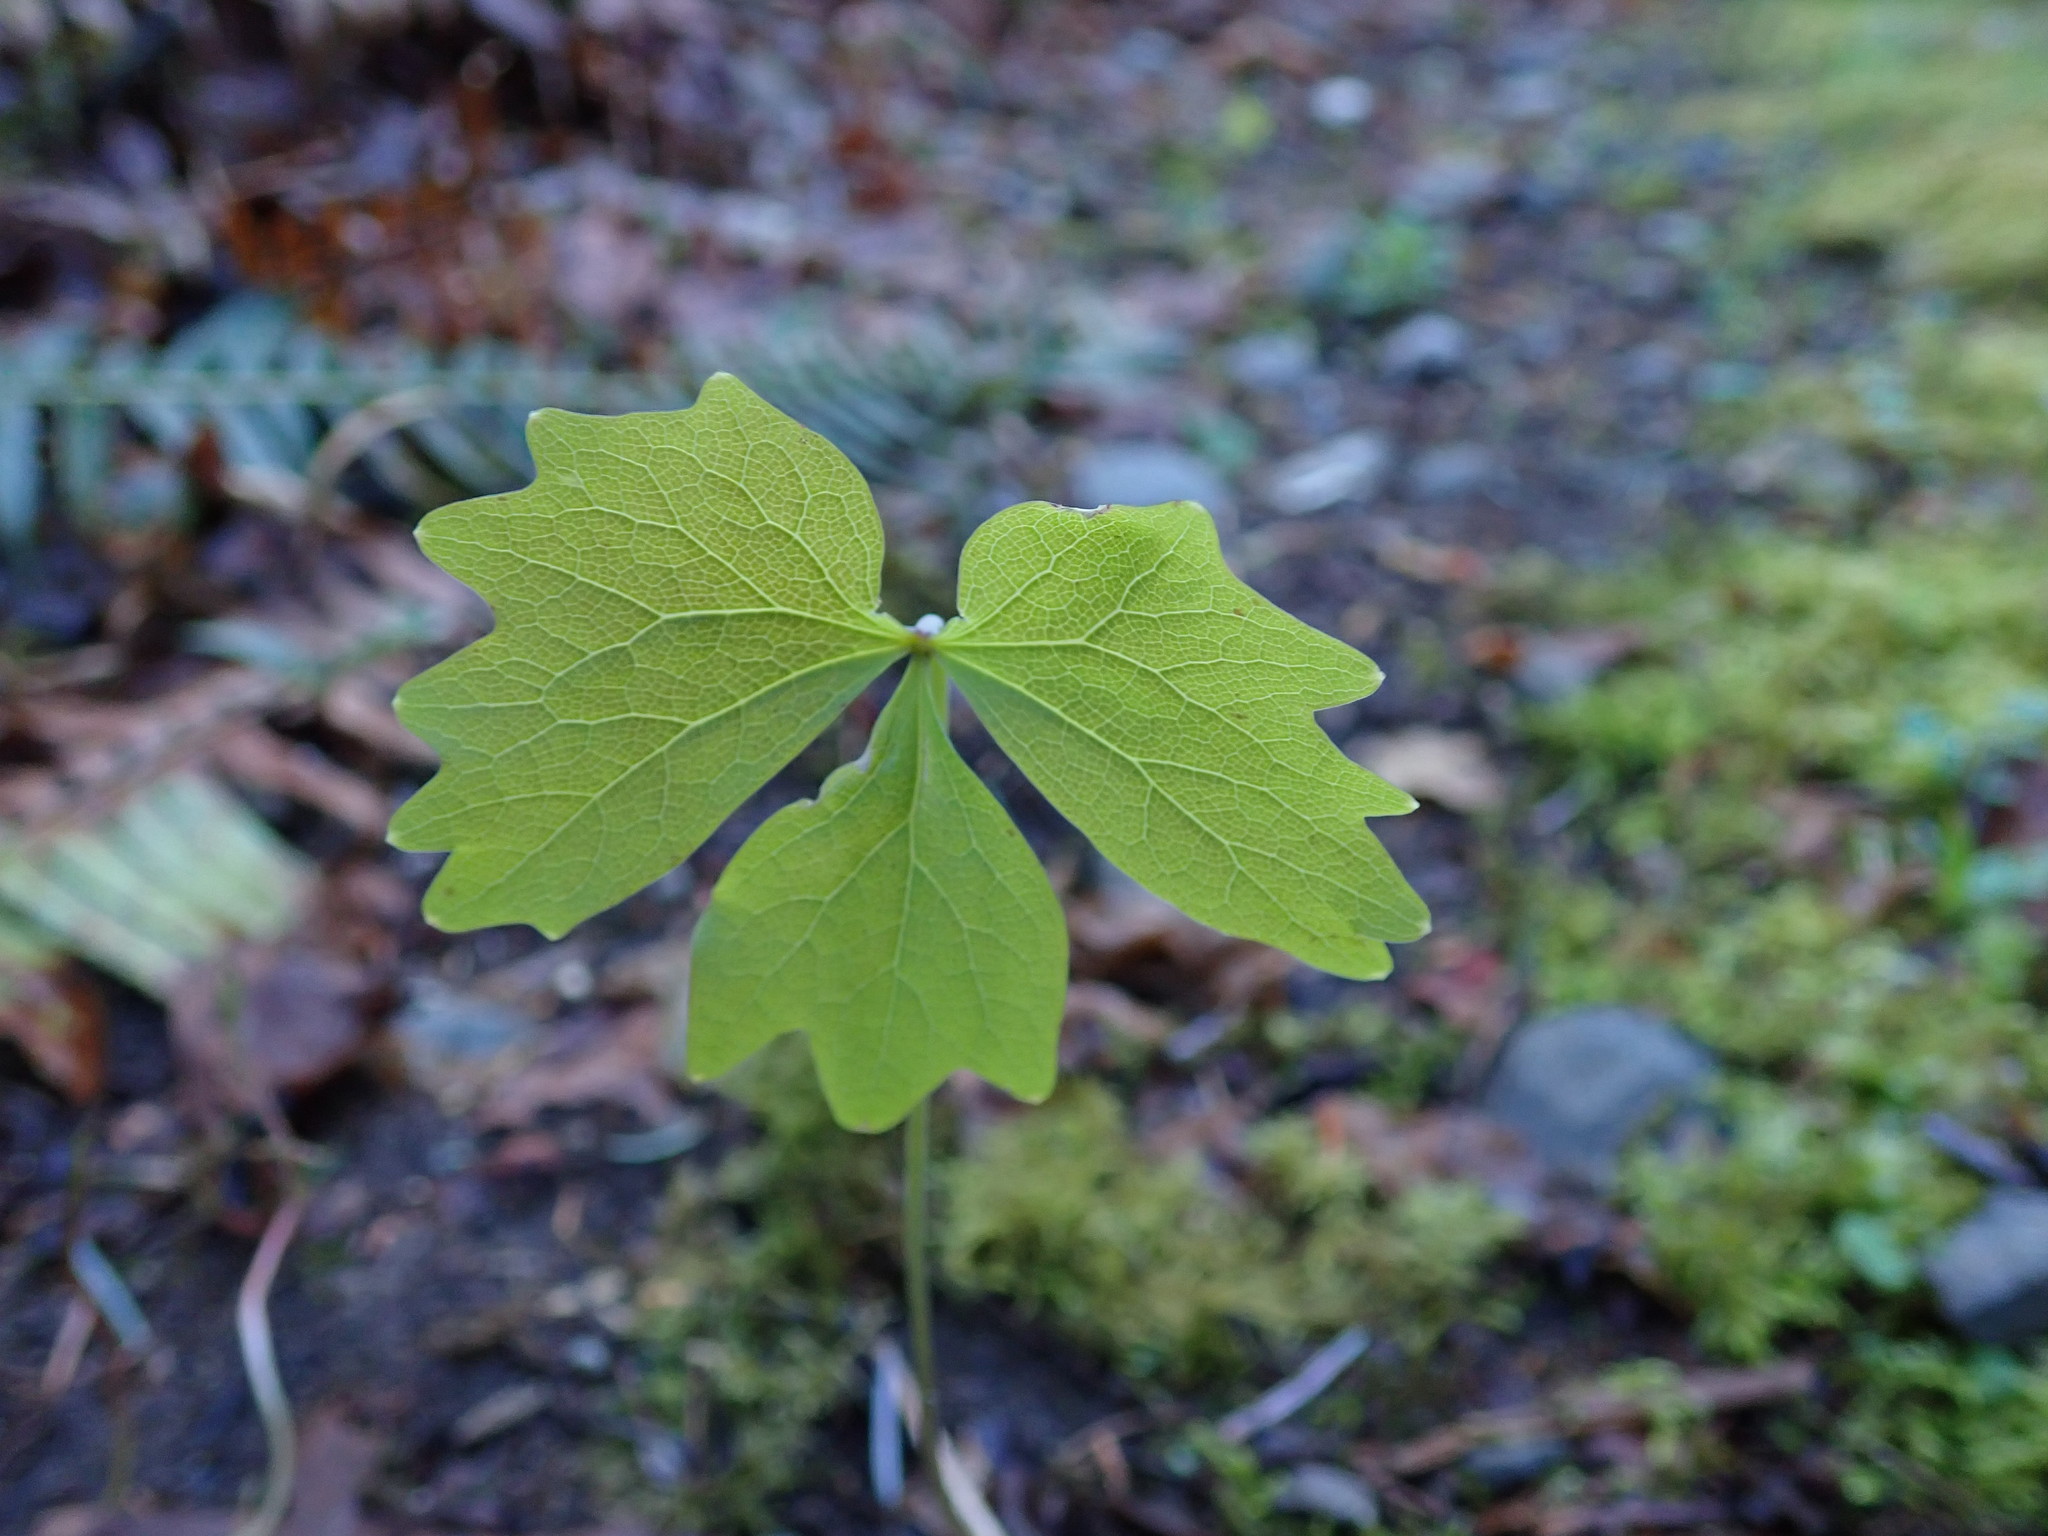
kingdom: Plantae
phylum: Tracheophyta
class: Magnoliopsida
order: Ranunculales
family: Berberidaceae
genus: Achlys
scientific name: Achlys triphylla
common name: Vanilla-leaf
